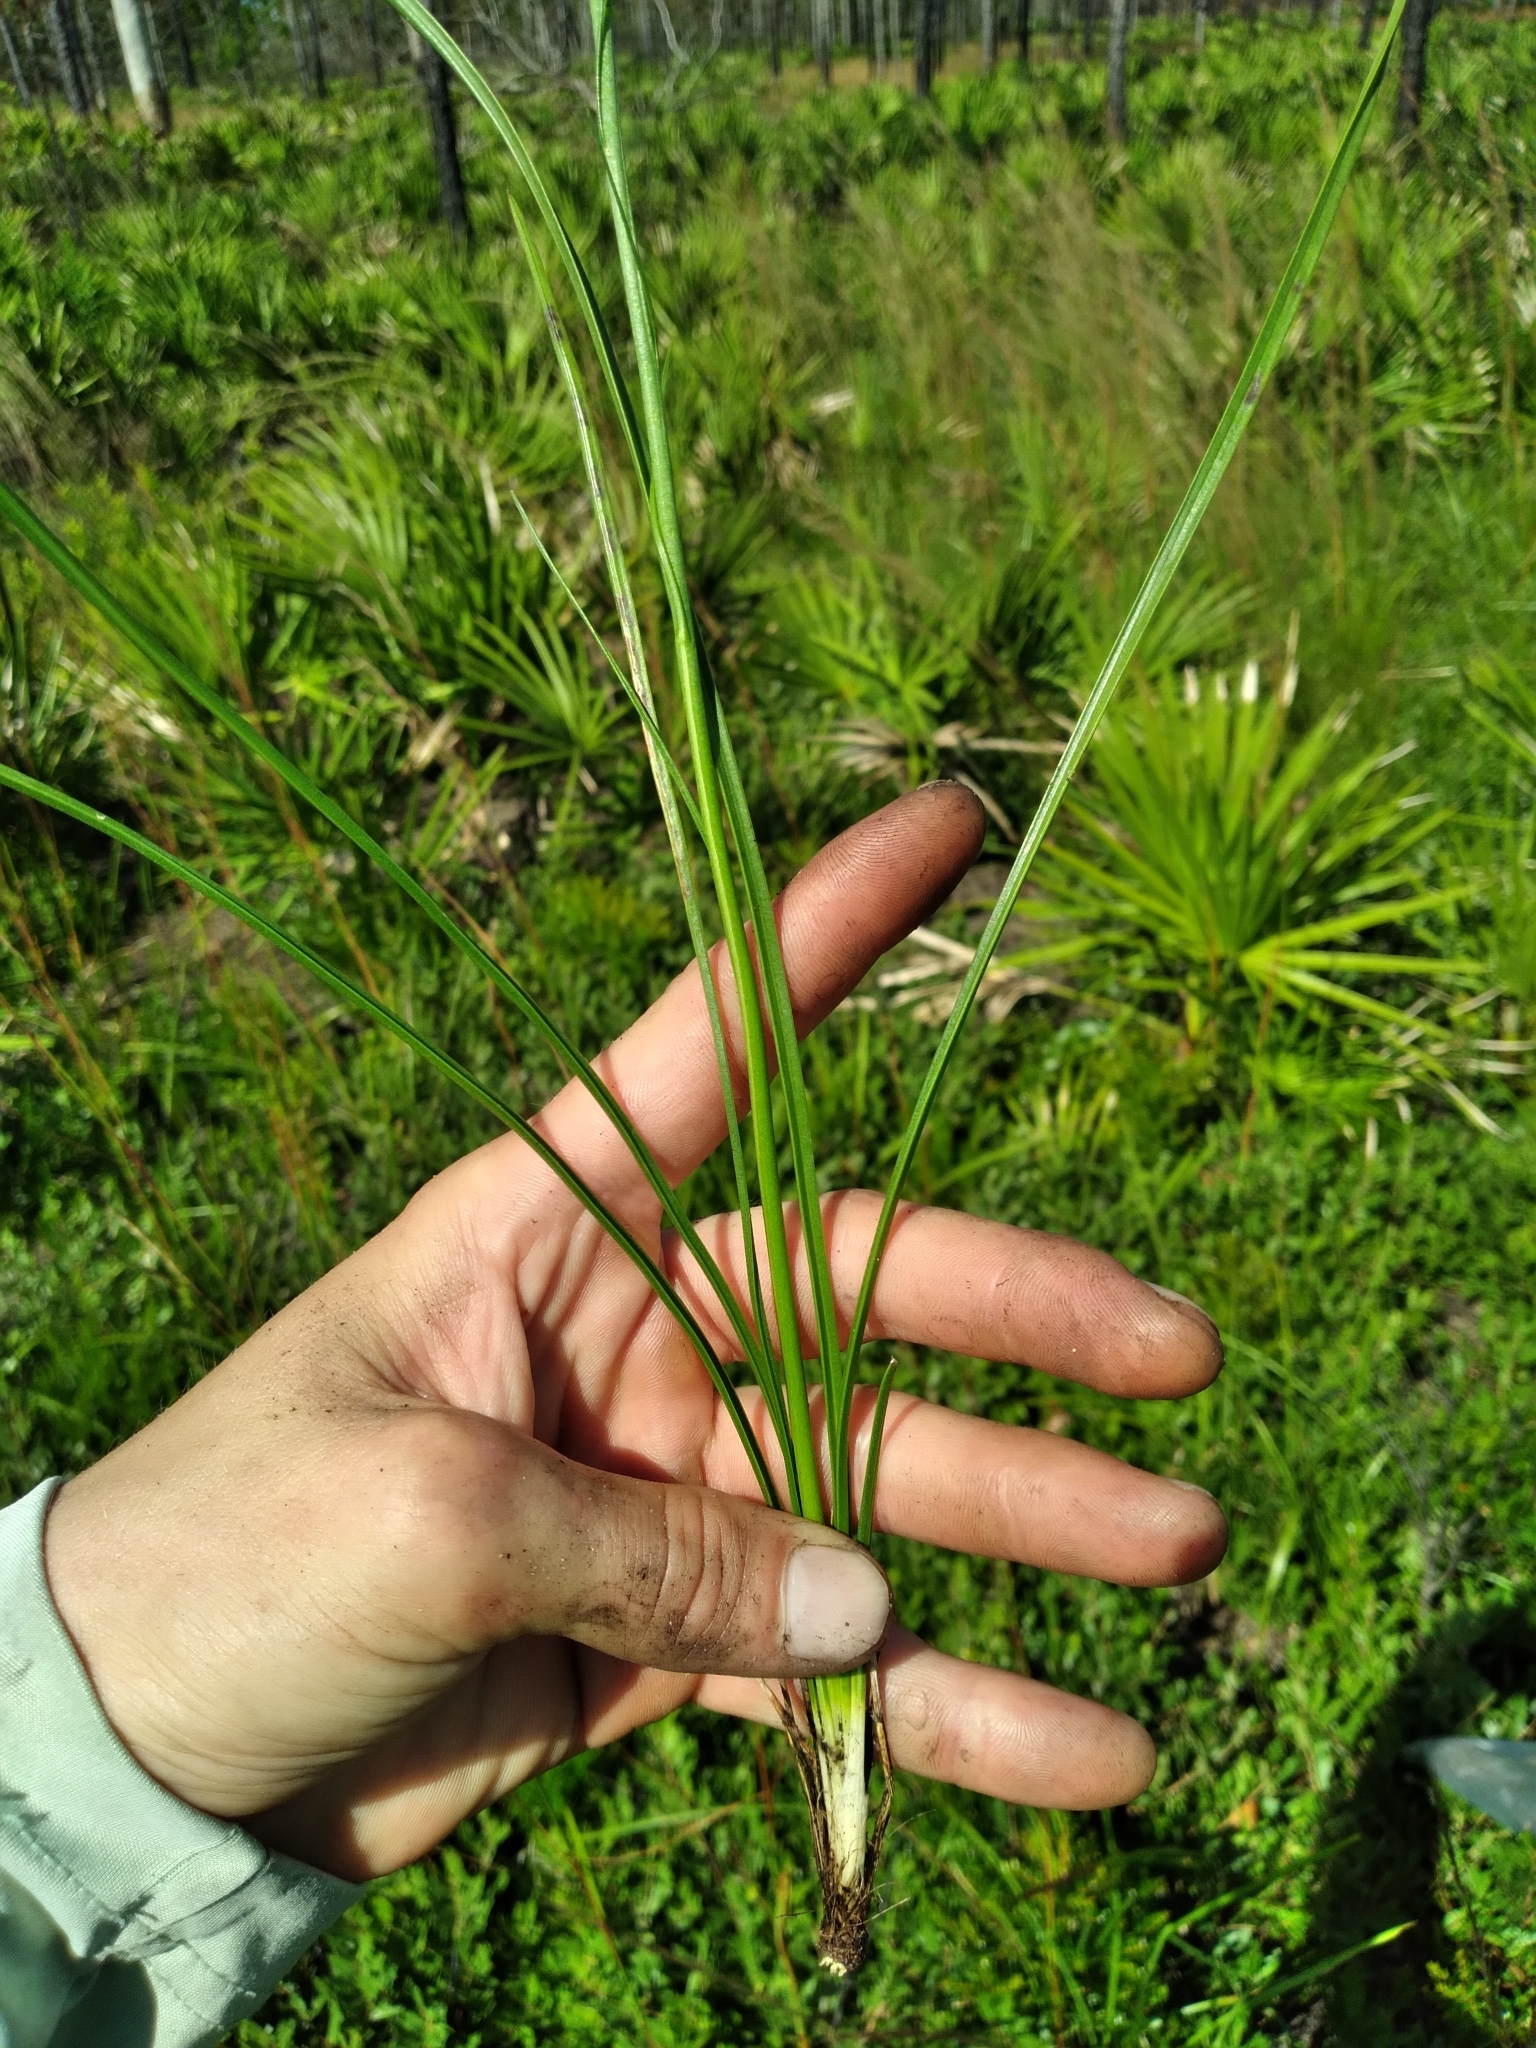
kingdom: Plantae
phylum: Tracheophyta
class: Magnoliopsida
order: Asterales
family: Asteraceae
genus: Liatris
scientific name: Liatris quadriflora
